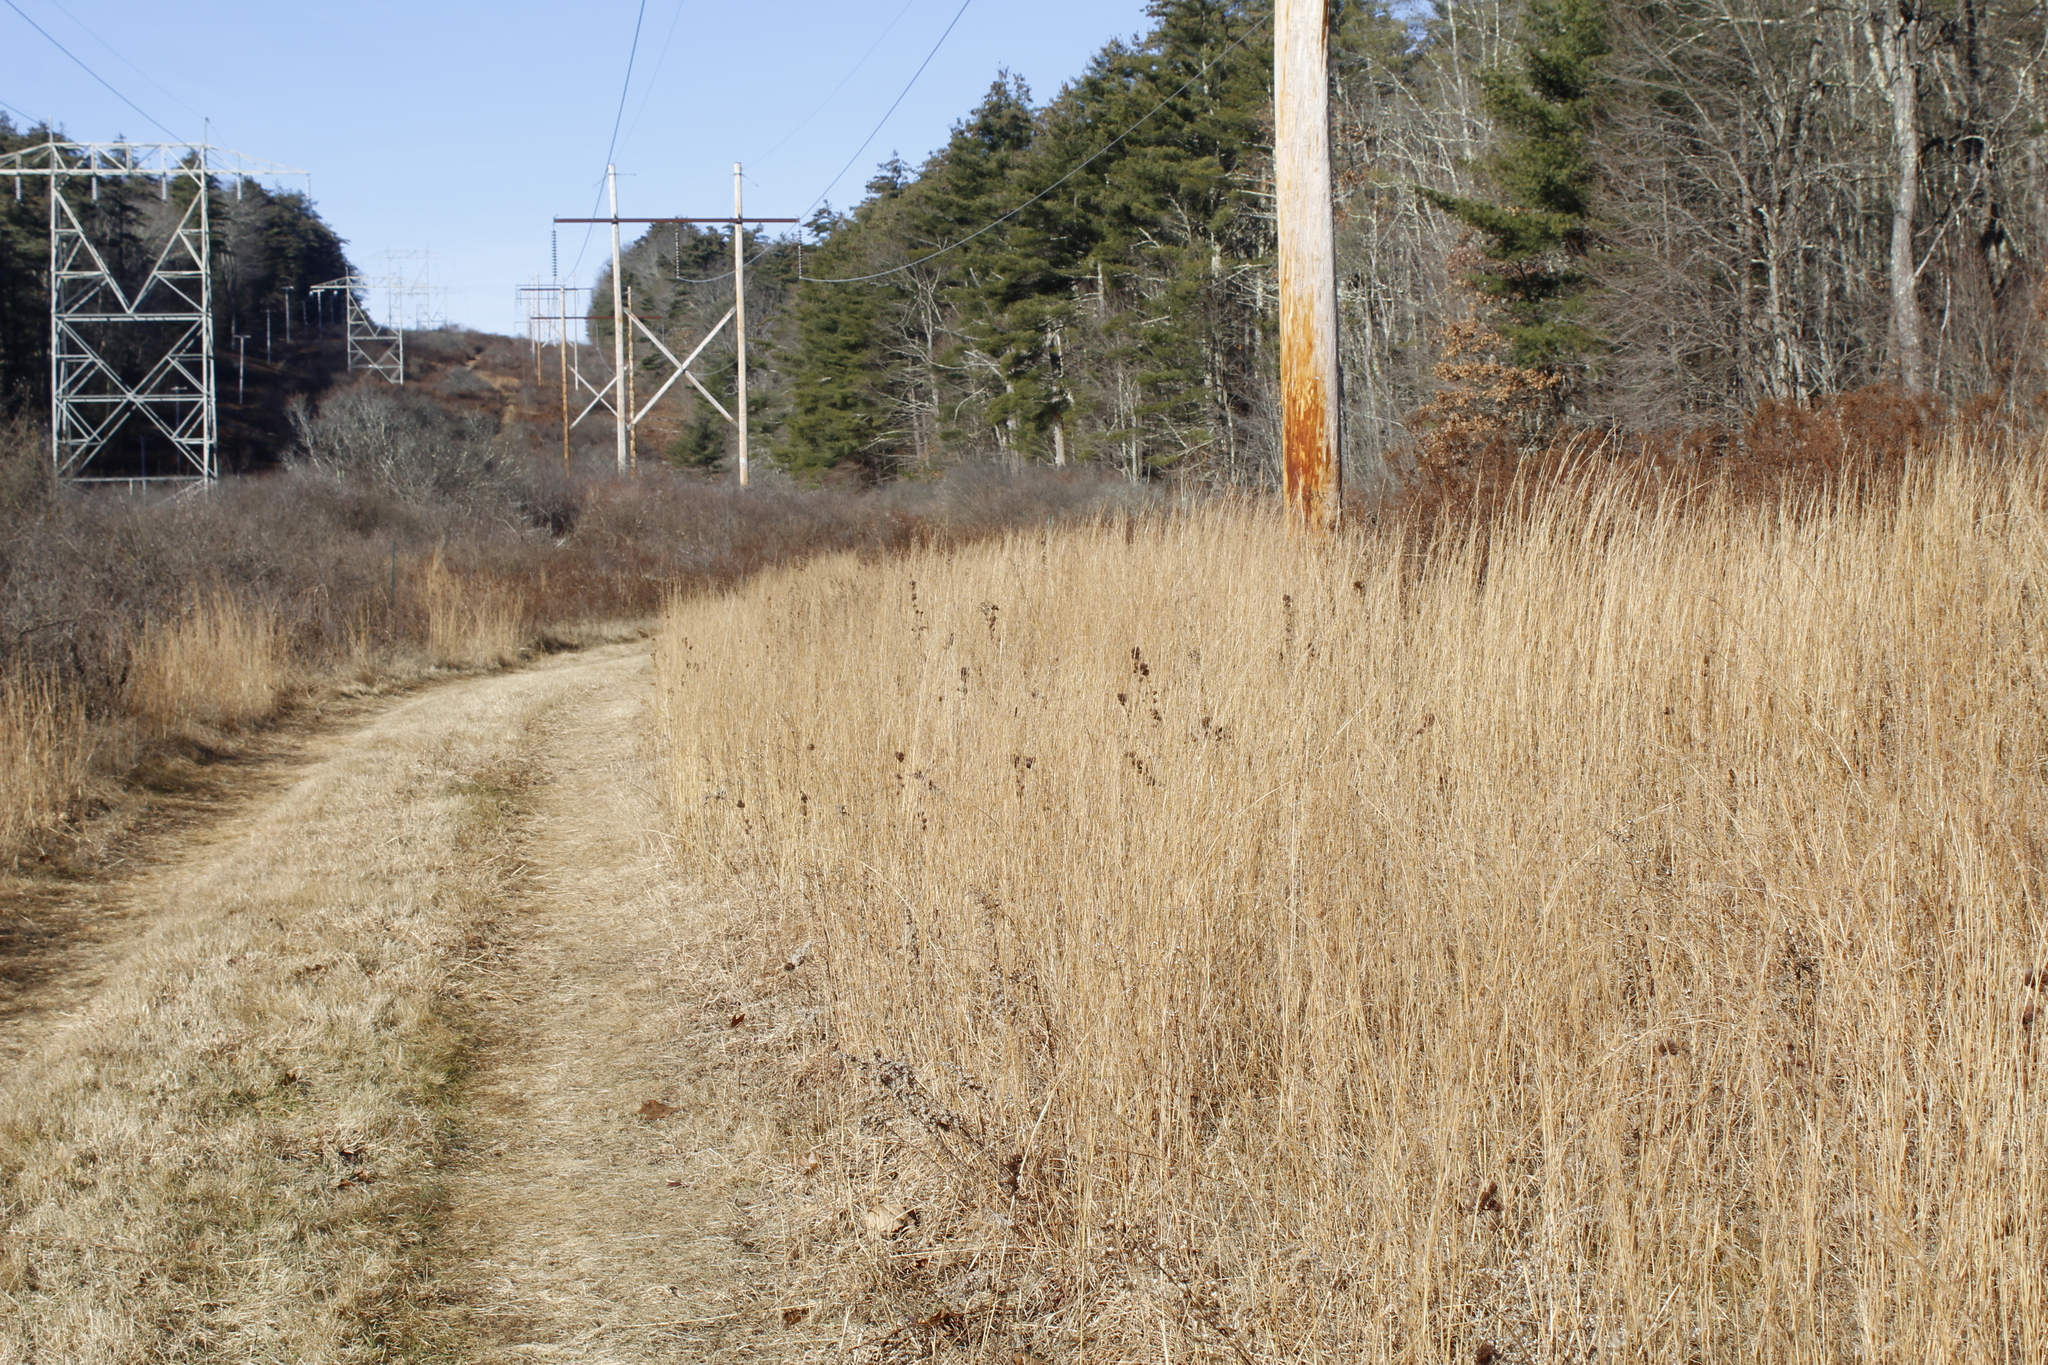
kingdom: Plantae
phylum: Tracheophyta
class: Magnoliopsida
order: Fabales
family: Fabaceae
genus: Lespedeza
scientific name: Lespedeza capitata
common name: Dusty clover
